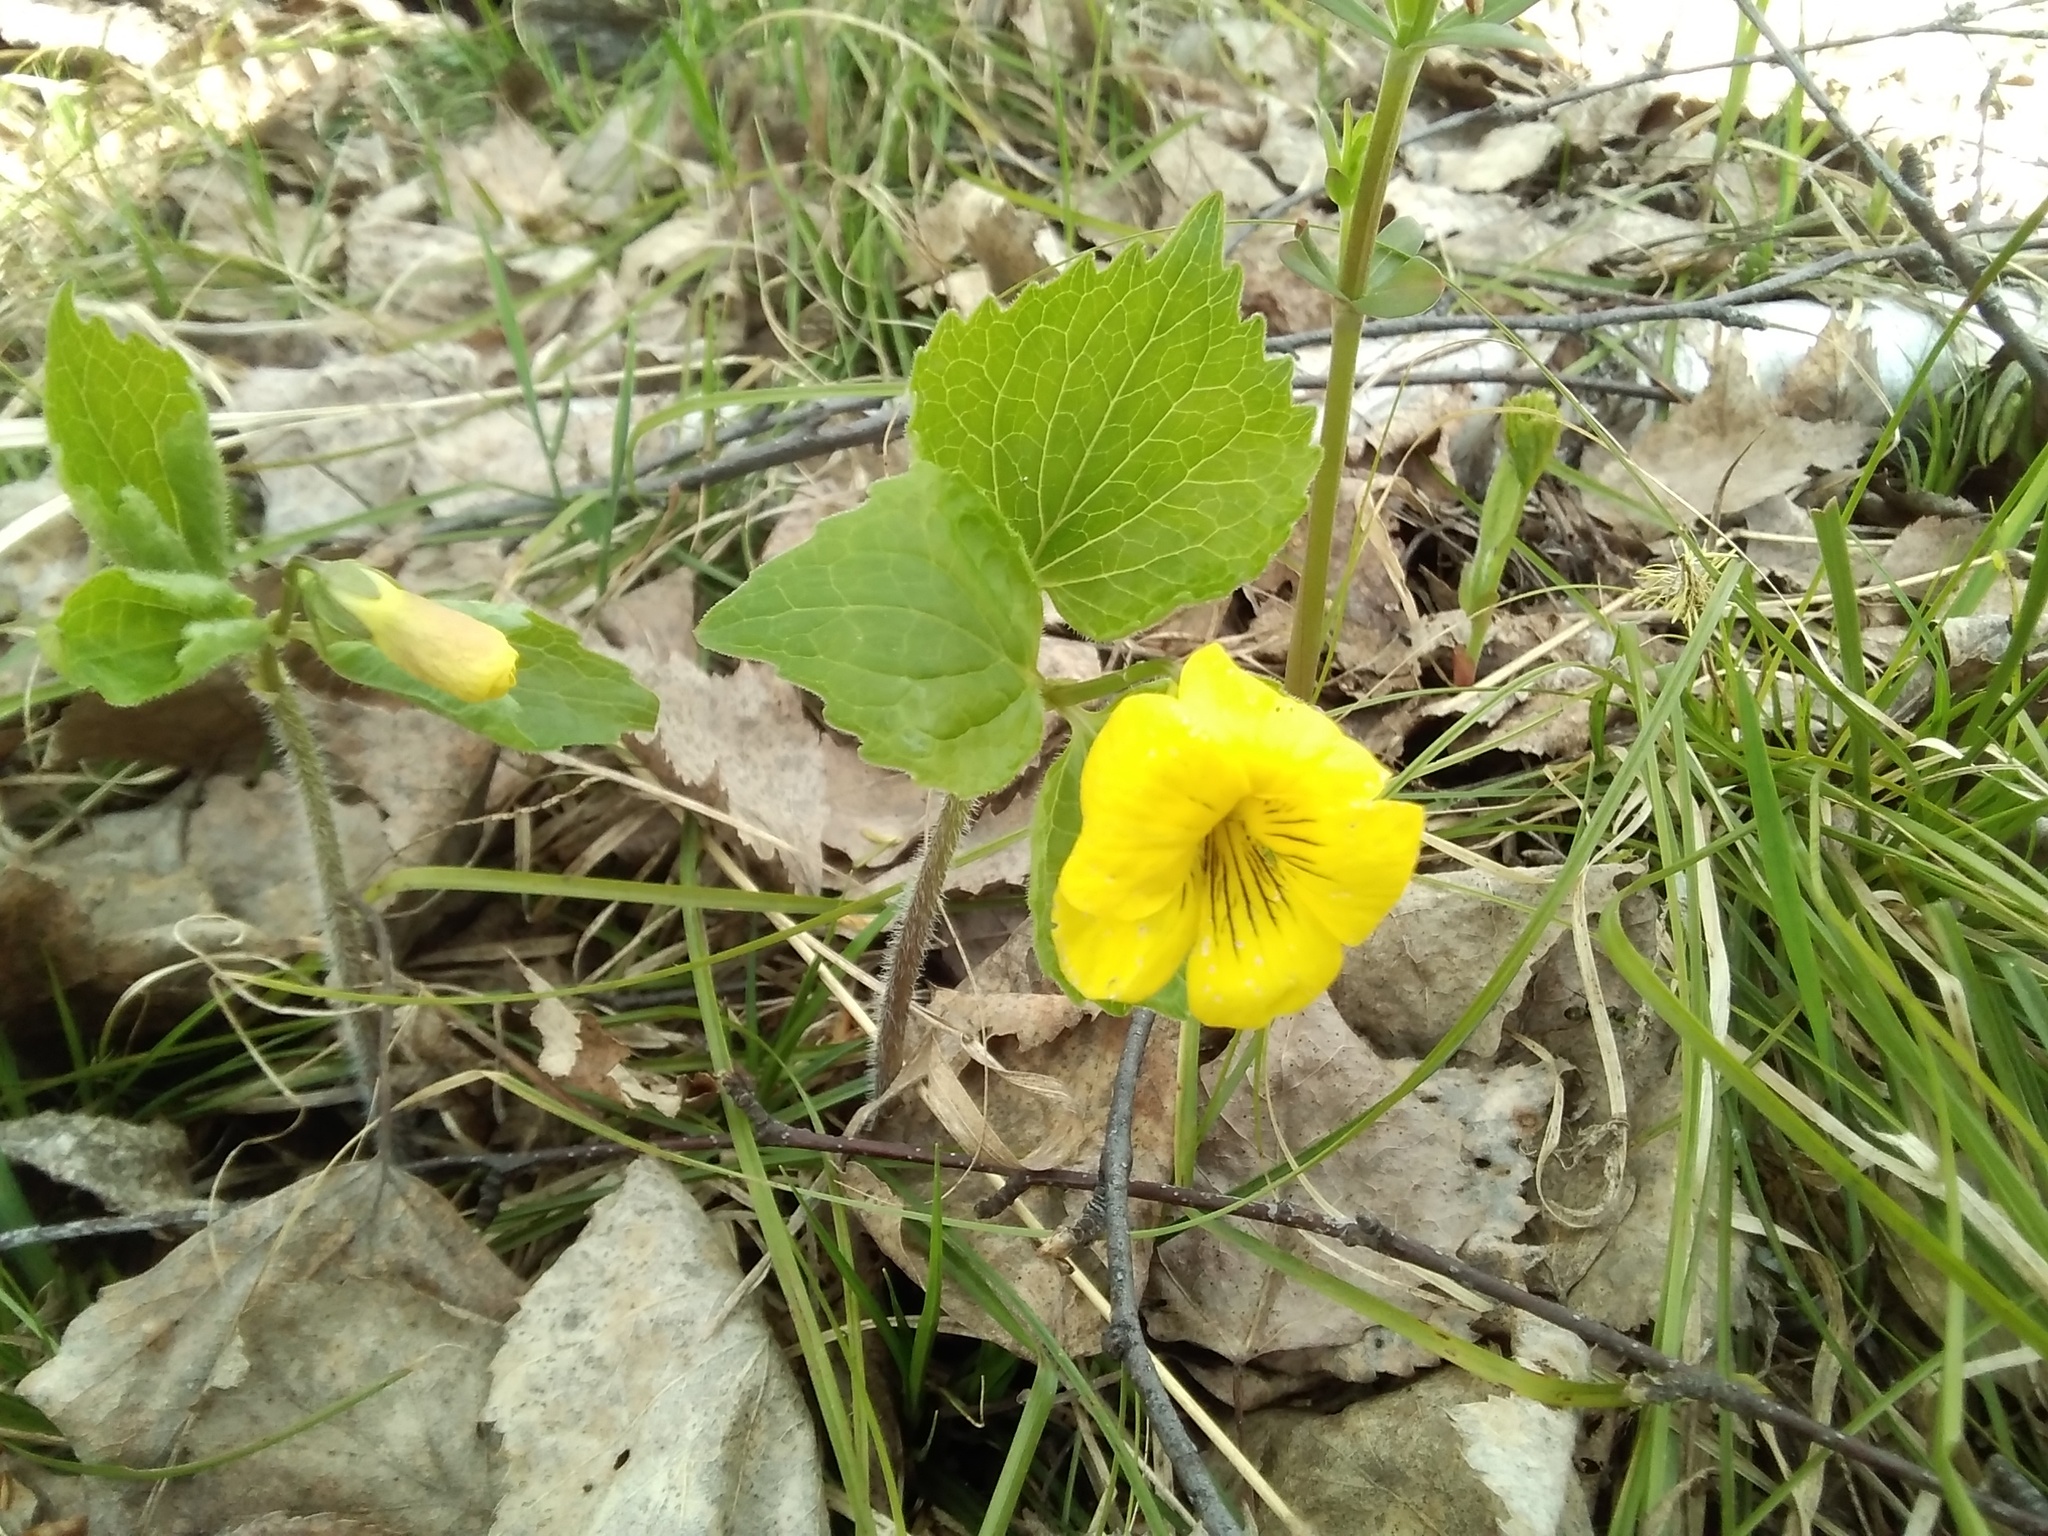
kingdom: Plantae
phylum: Tracheophyta
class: Magnoliopsida
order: Malpighiales
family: Violaceae
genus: Viola
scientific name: Viola uniflora
